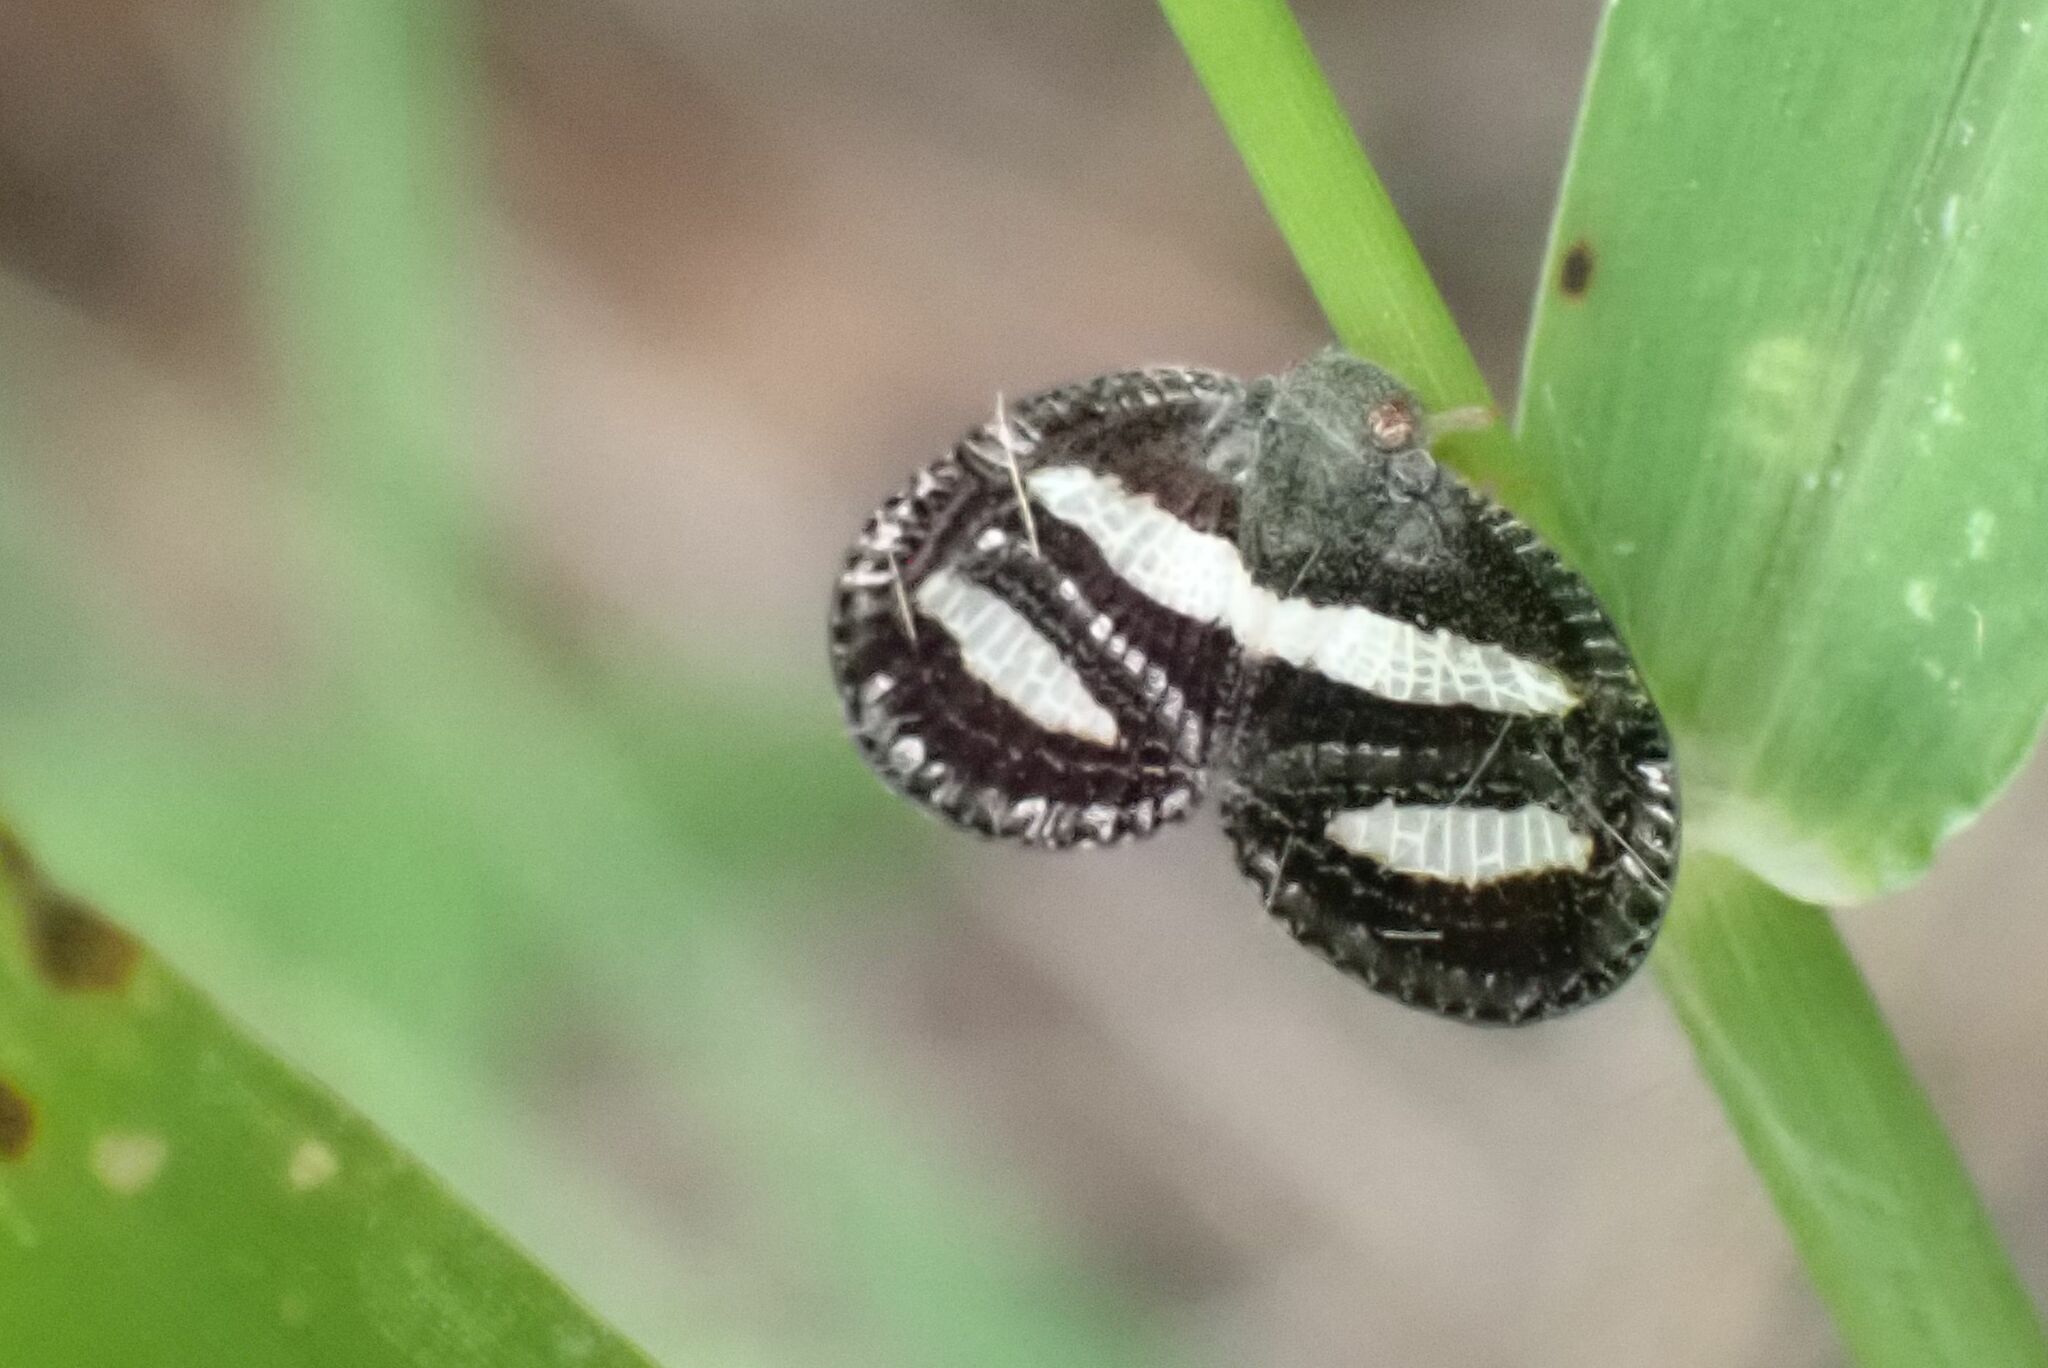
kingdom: Animalia
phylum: Arthropoda
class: Insecta
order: Hemiptera
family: Ricaniidae
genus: Mulvia
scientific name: Mulvia albizona
